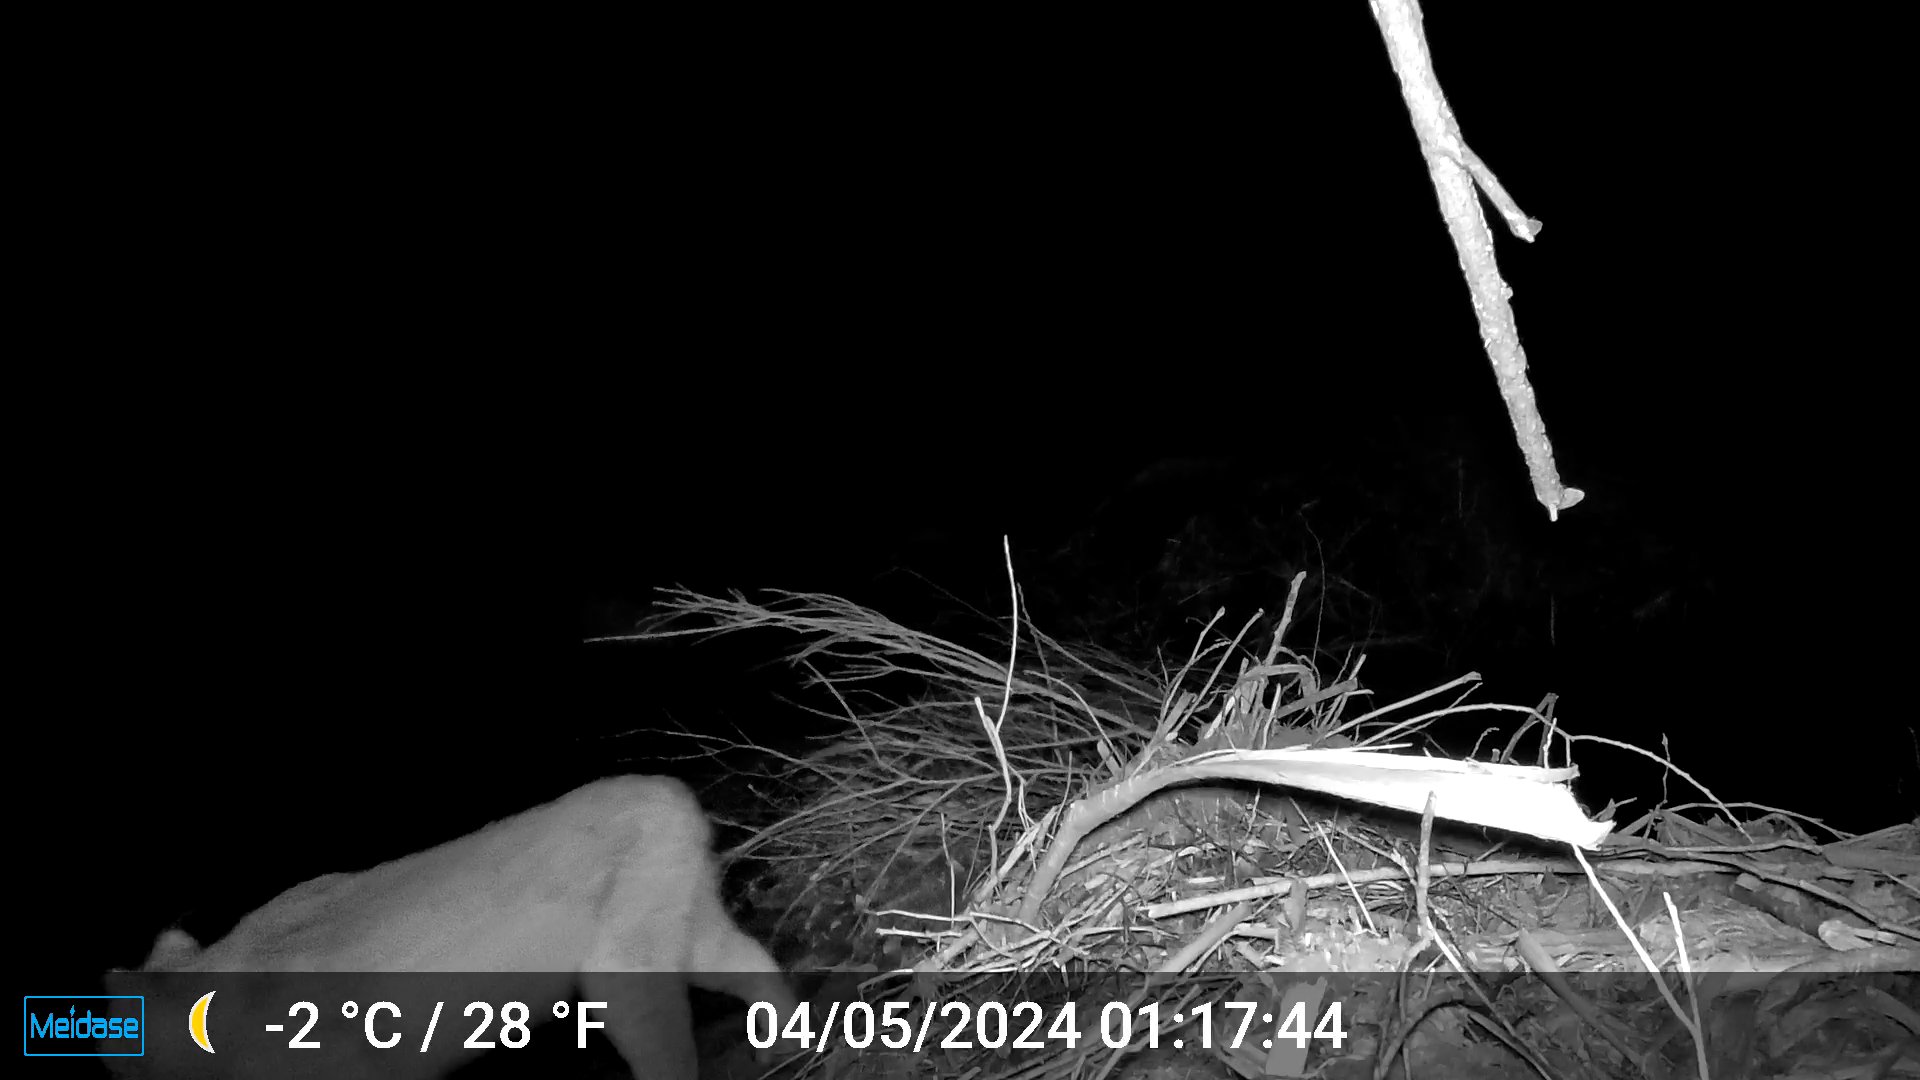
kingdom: Animalia
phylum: Chordata
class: Mammalia
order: Carnivora
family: Felidae
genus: Lynx
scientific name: Lynx canadensis
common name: Canadian lynx
